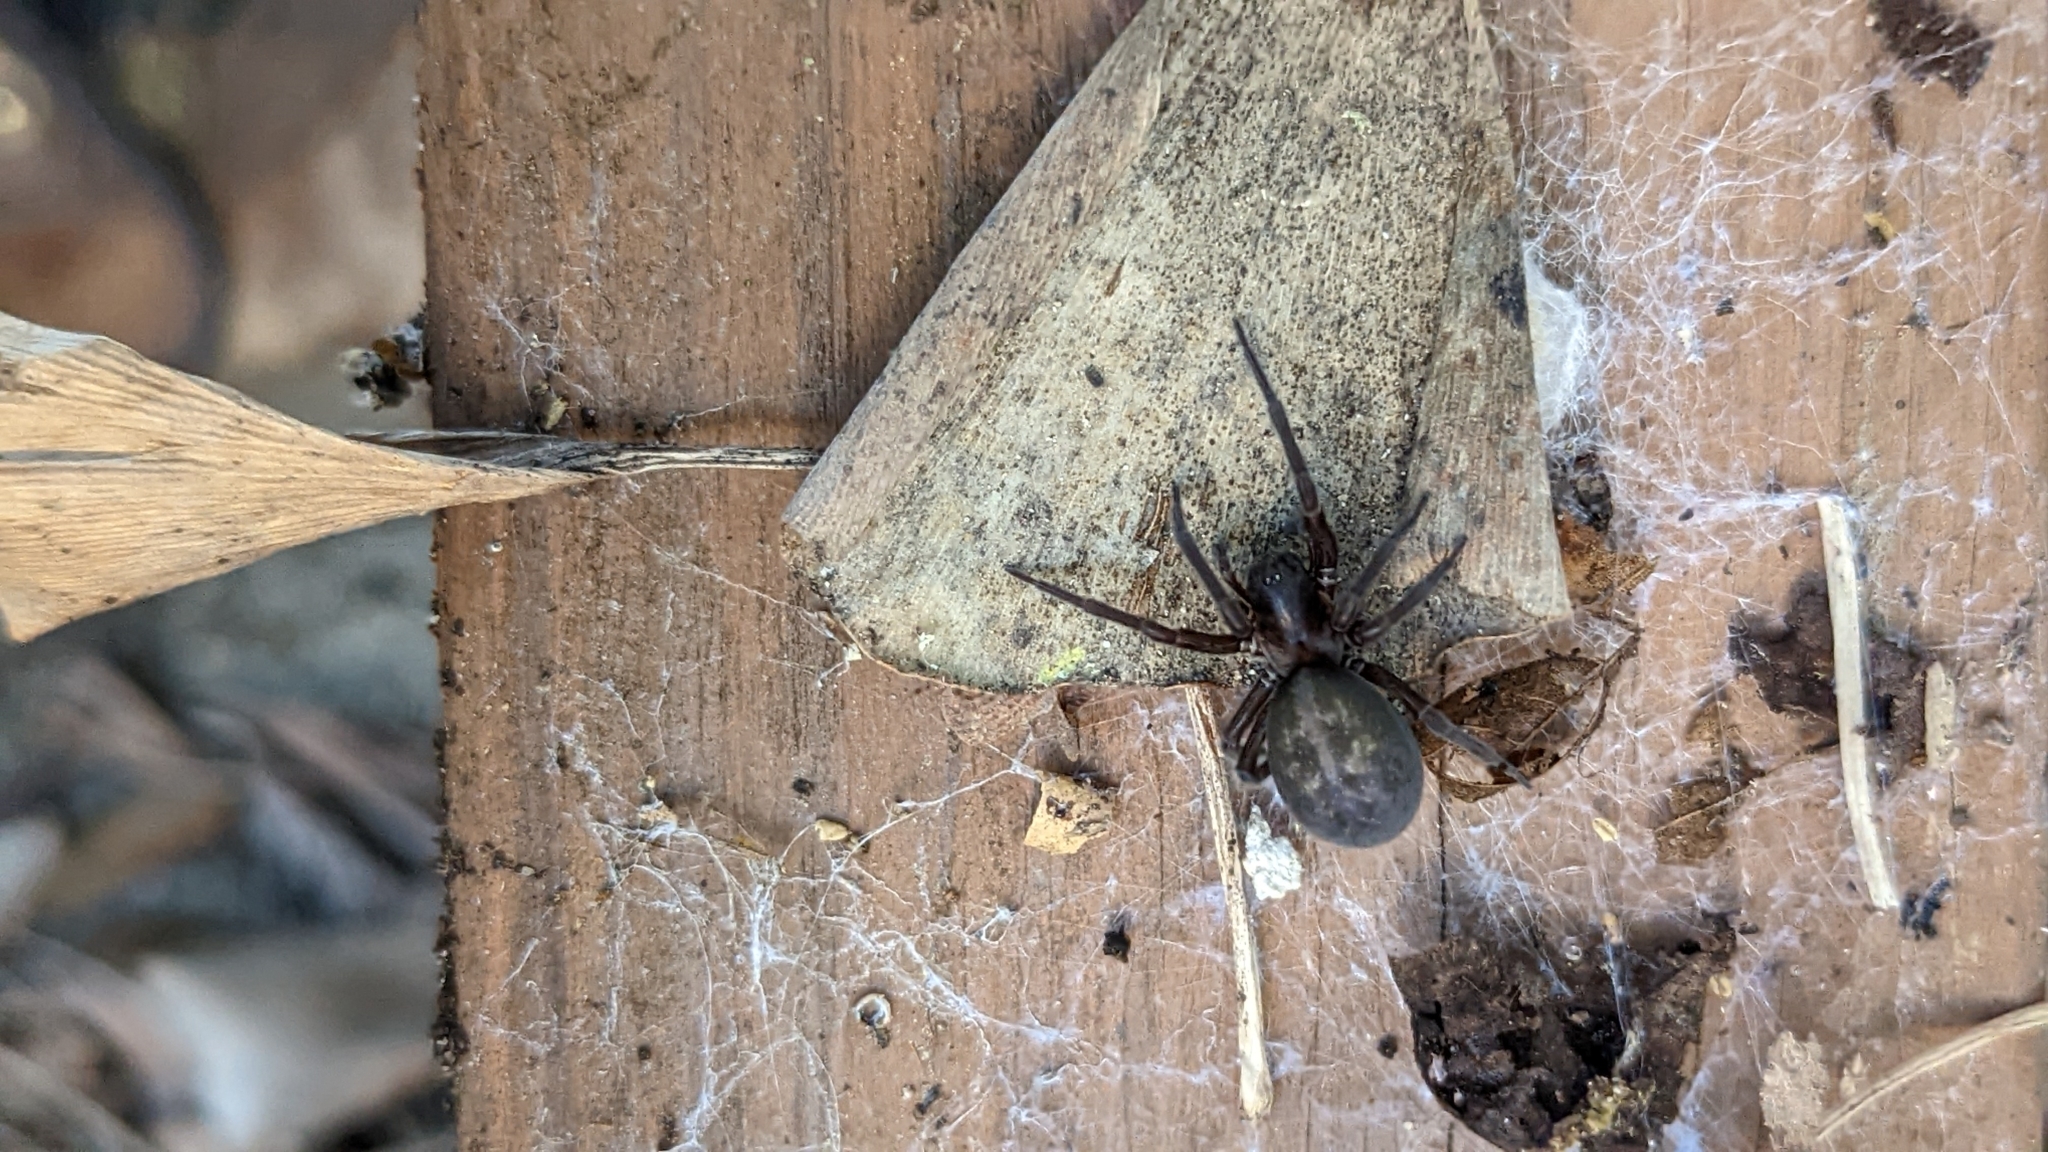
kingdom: Animalia
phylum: Arthropoda
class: Arachnida
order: Araneae
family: Amaurobiidae
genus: Amaurobius
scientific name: Amaurobius ferox
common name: Black laceweaver
